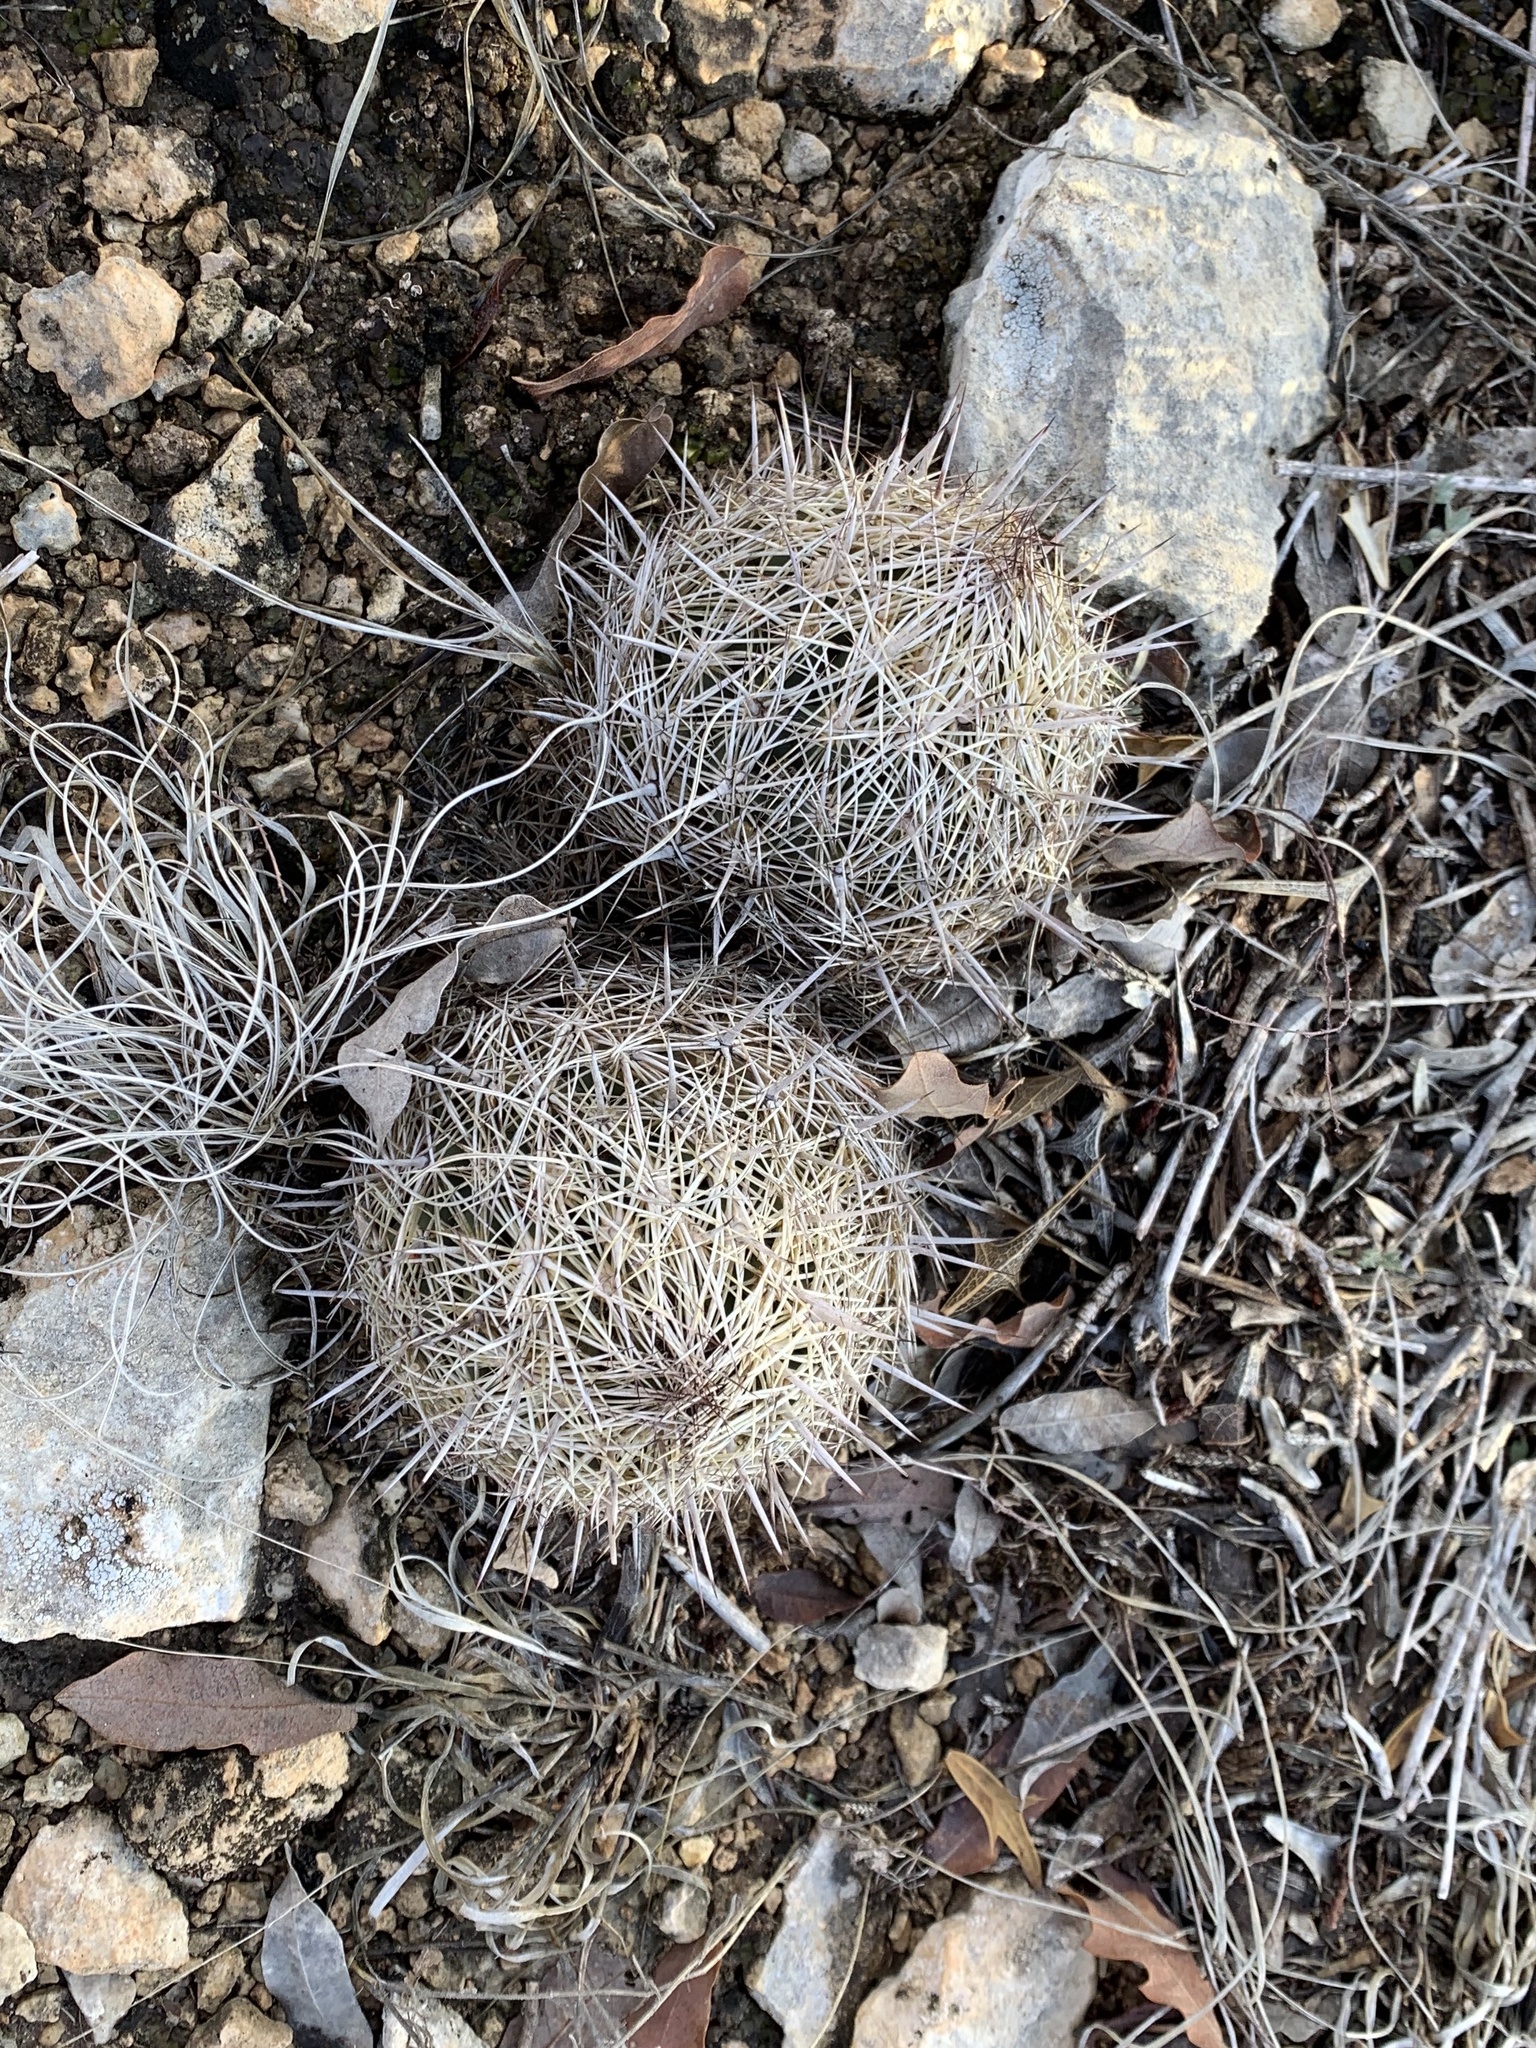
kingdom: Plantae
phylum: Tracheophyta
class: Magnoliopsida
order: Caryophyllales
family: Cactaceae
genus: Coryphantha
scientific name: Coryphantha echinus
